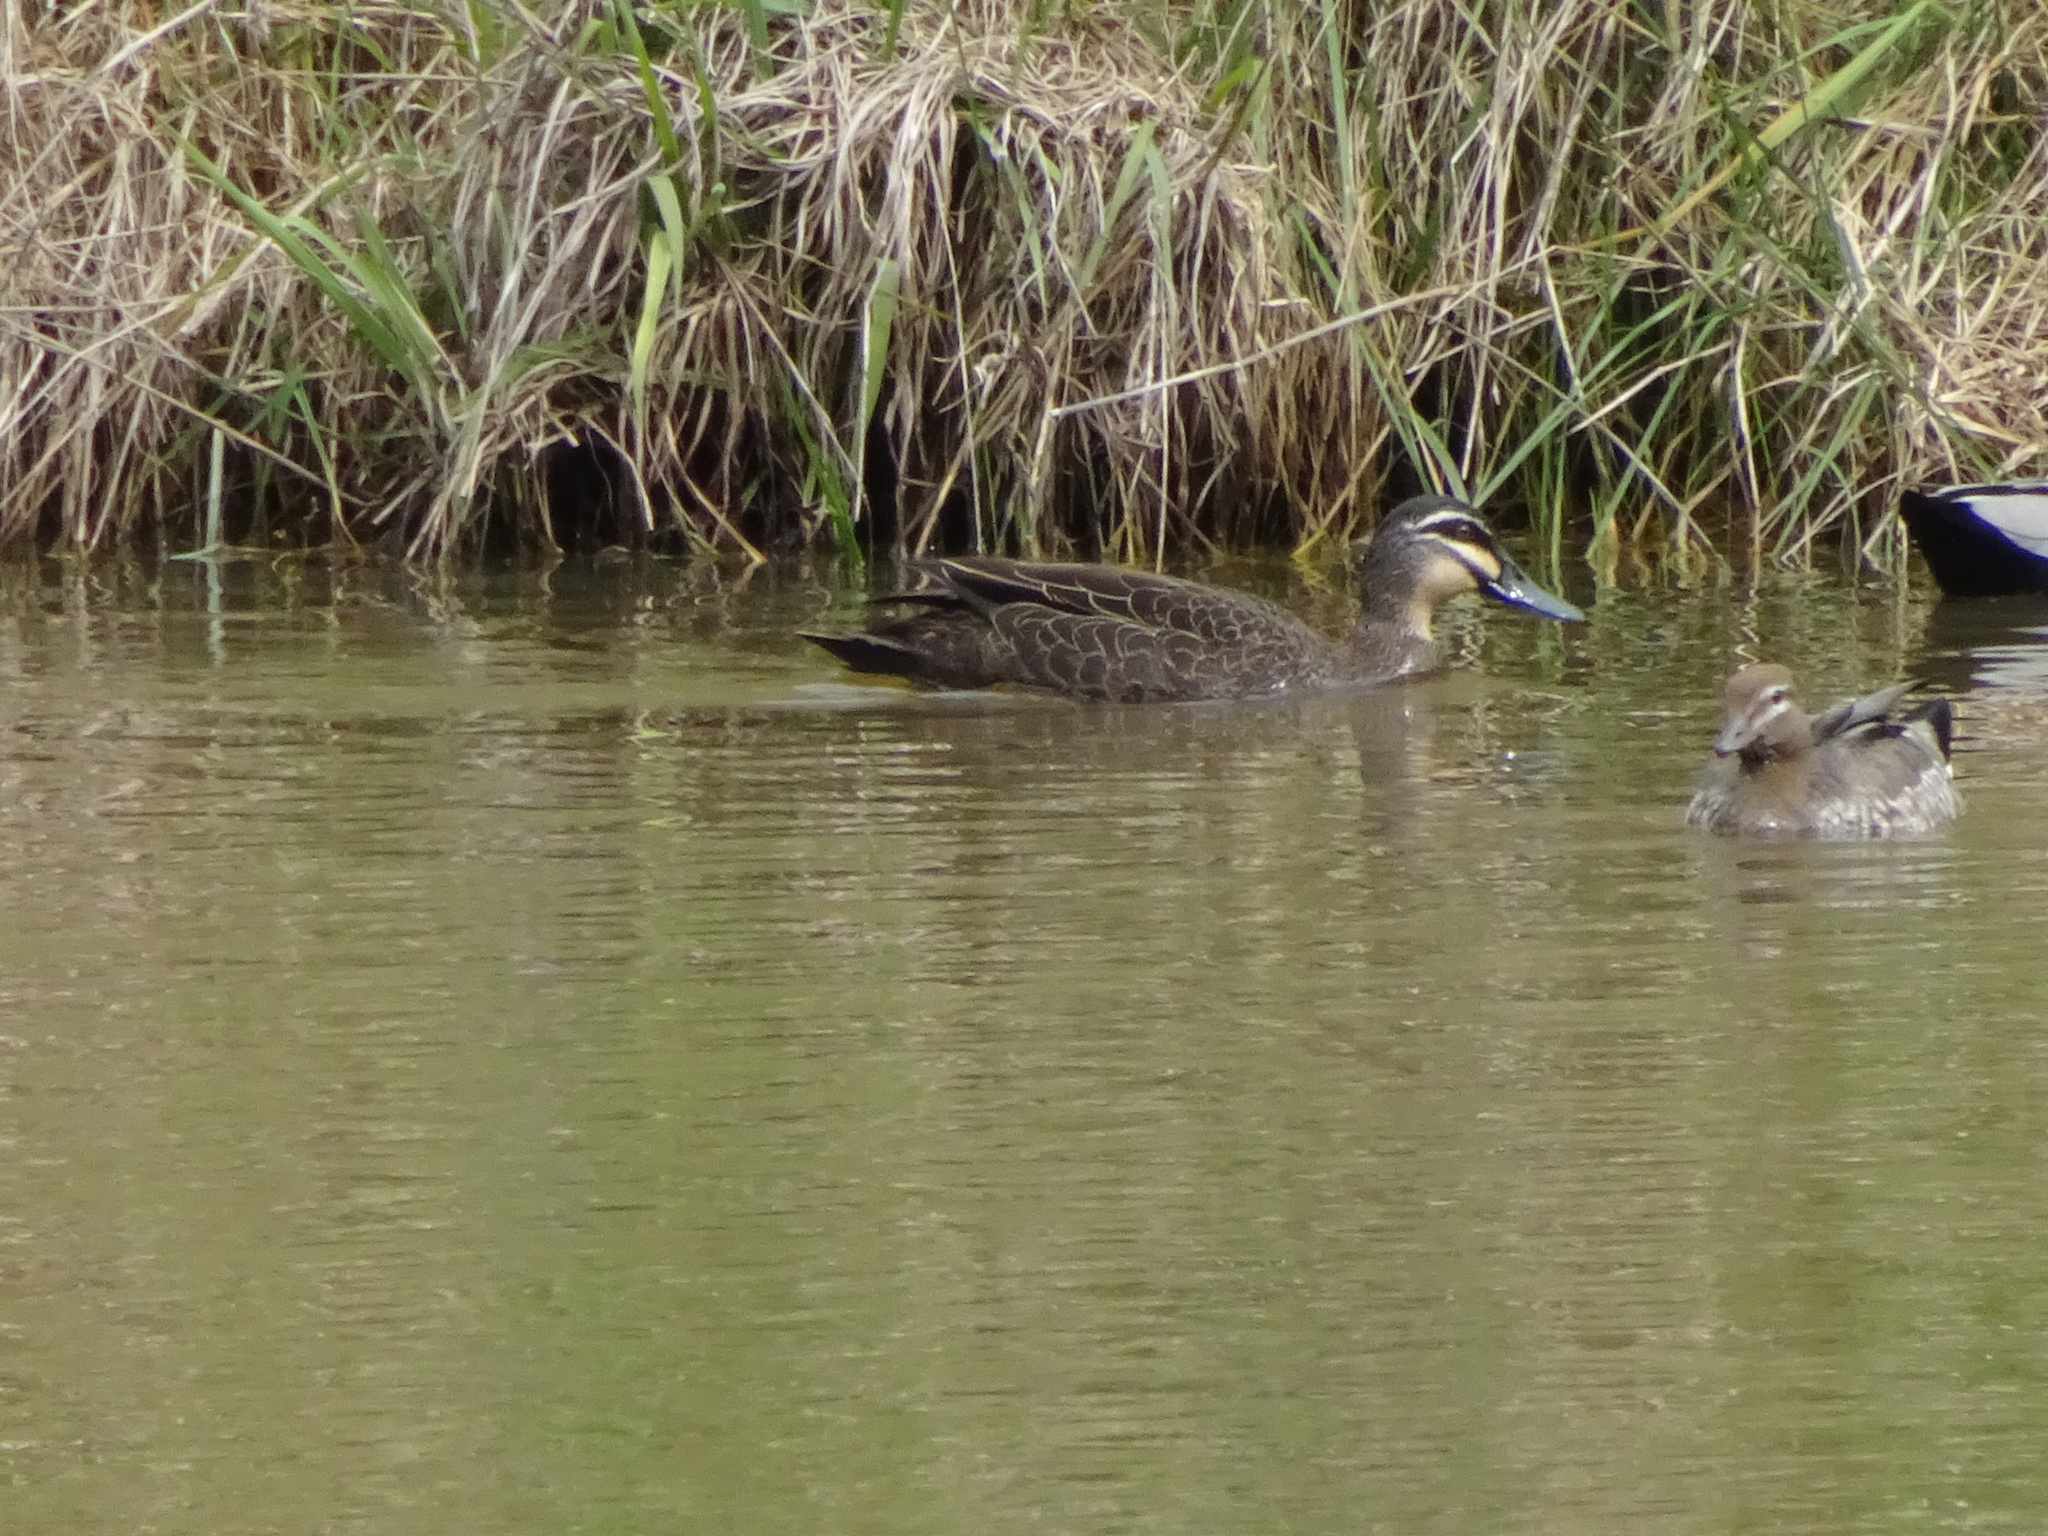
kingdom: Animalia
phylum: Chordata
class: Aves
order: Anseriformes
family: Anatidae
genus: Anas
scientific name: Anas superciliosa
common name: Pacific black duck
